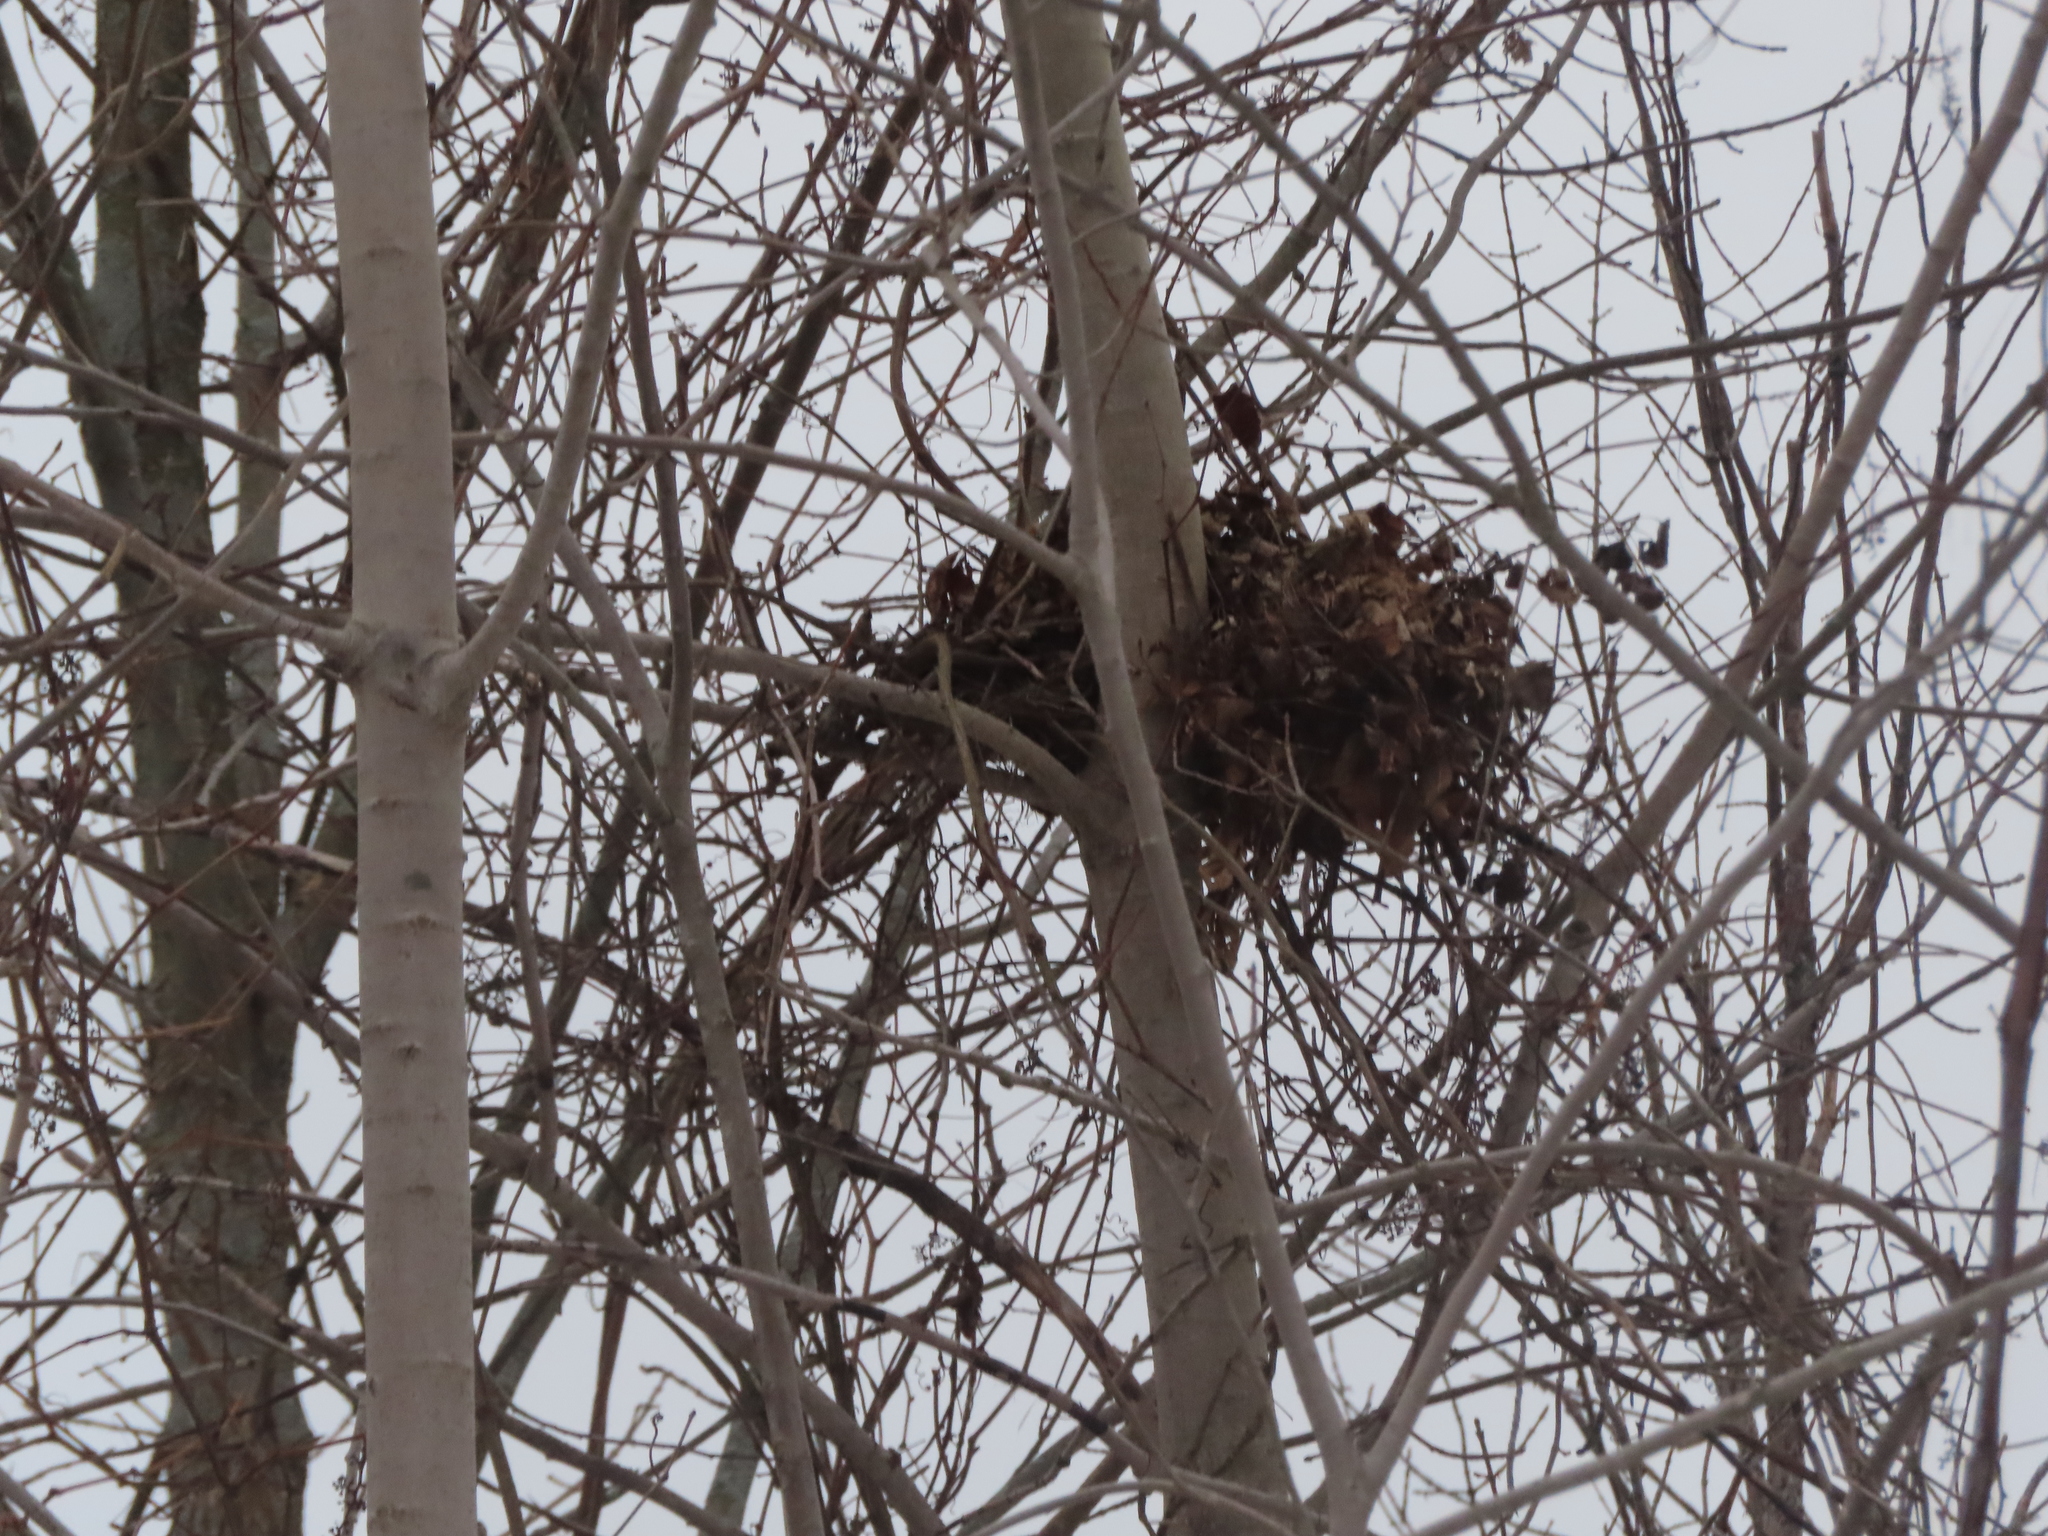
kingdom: Animalia
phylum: Chordata
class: Mammalia
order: Rodentia
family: Sciuridae
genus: Sciurus
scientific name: Sciurus carolinensis
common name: Eastern gray squirrel
